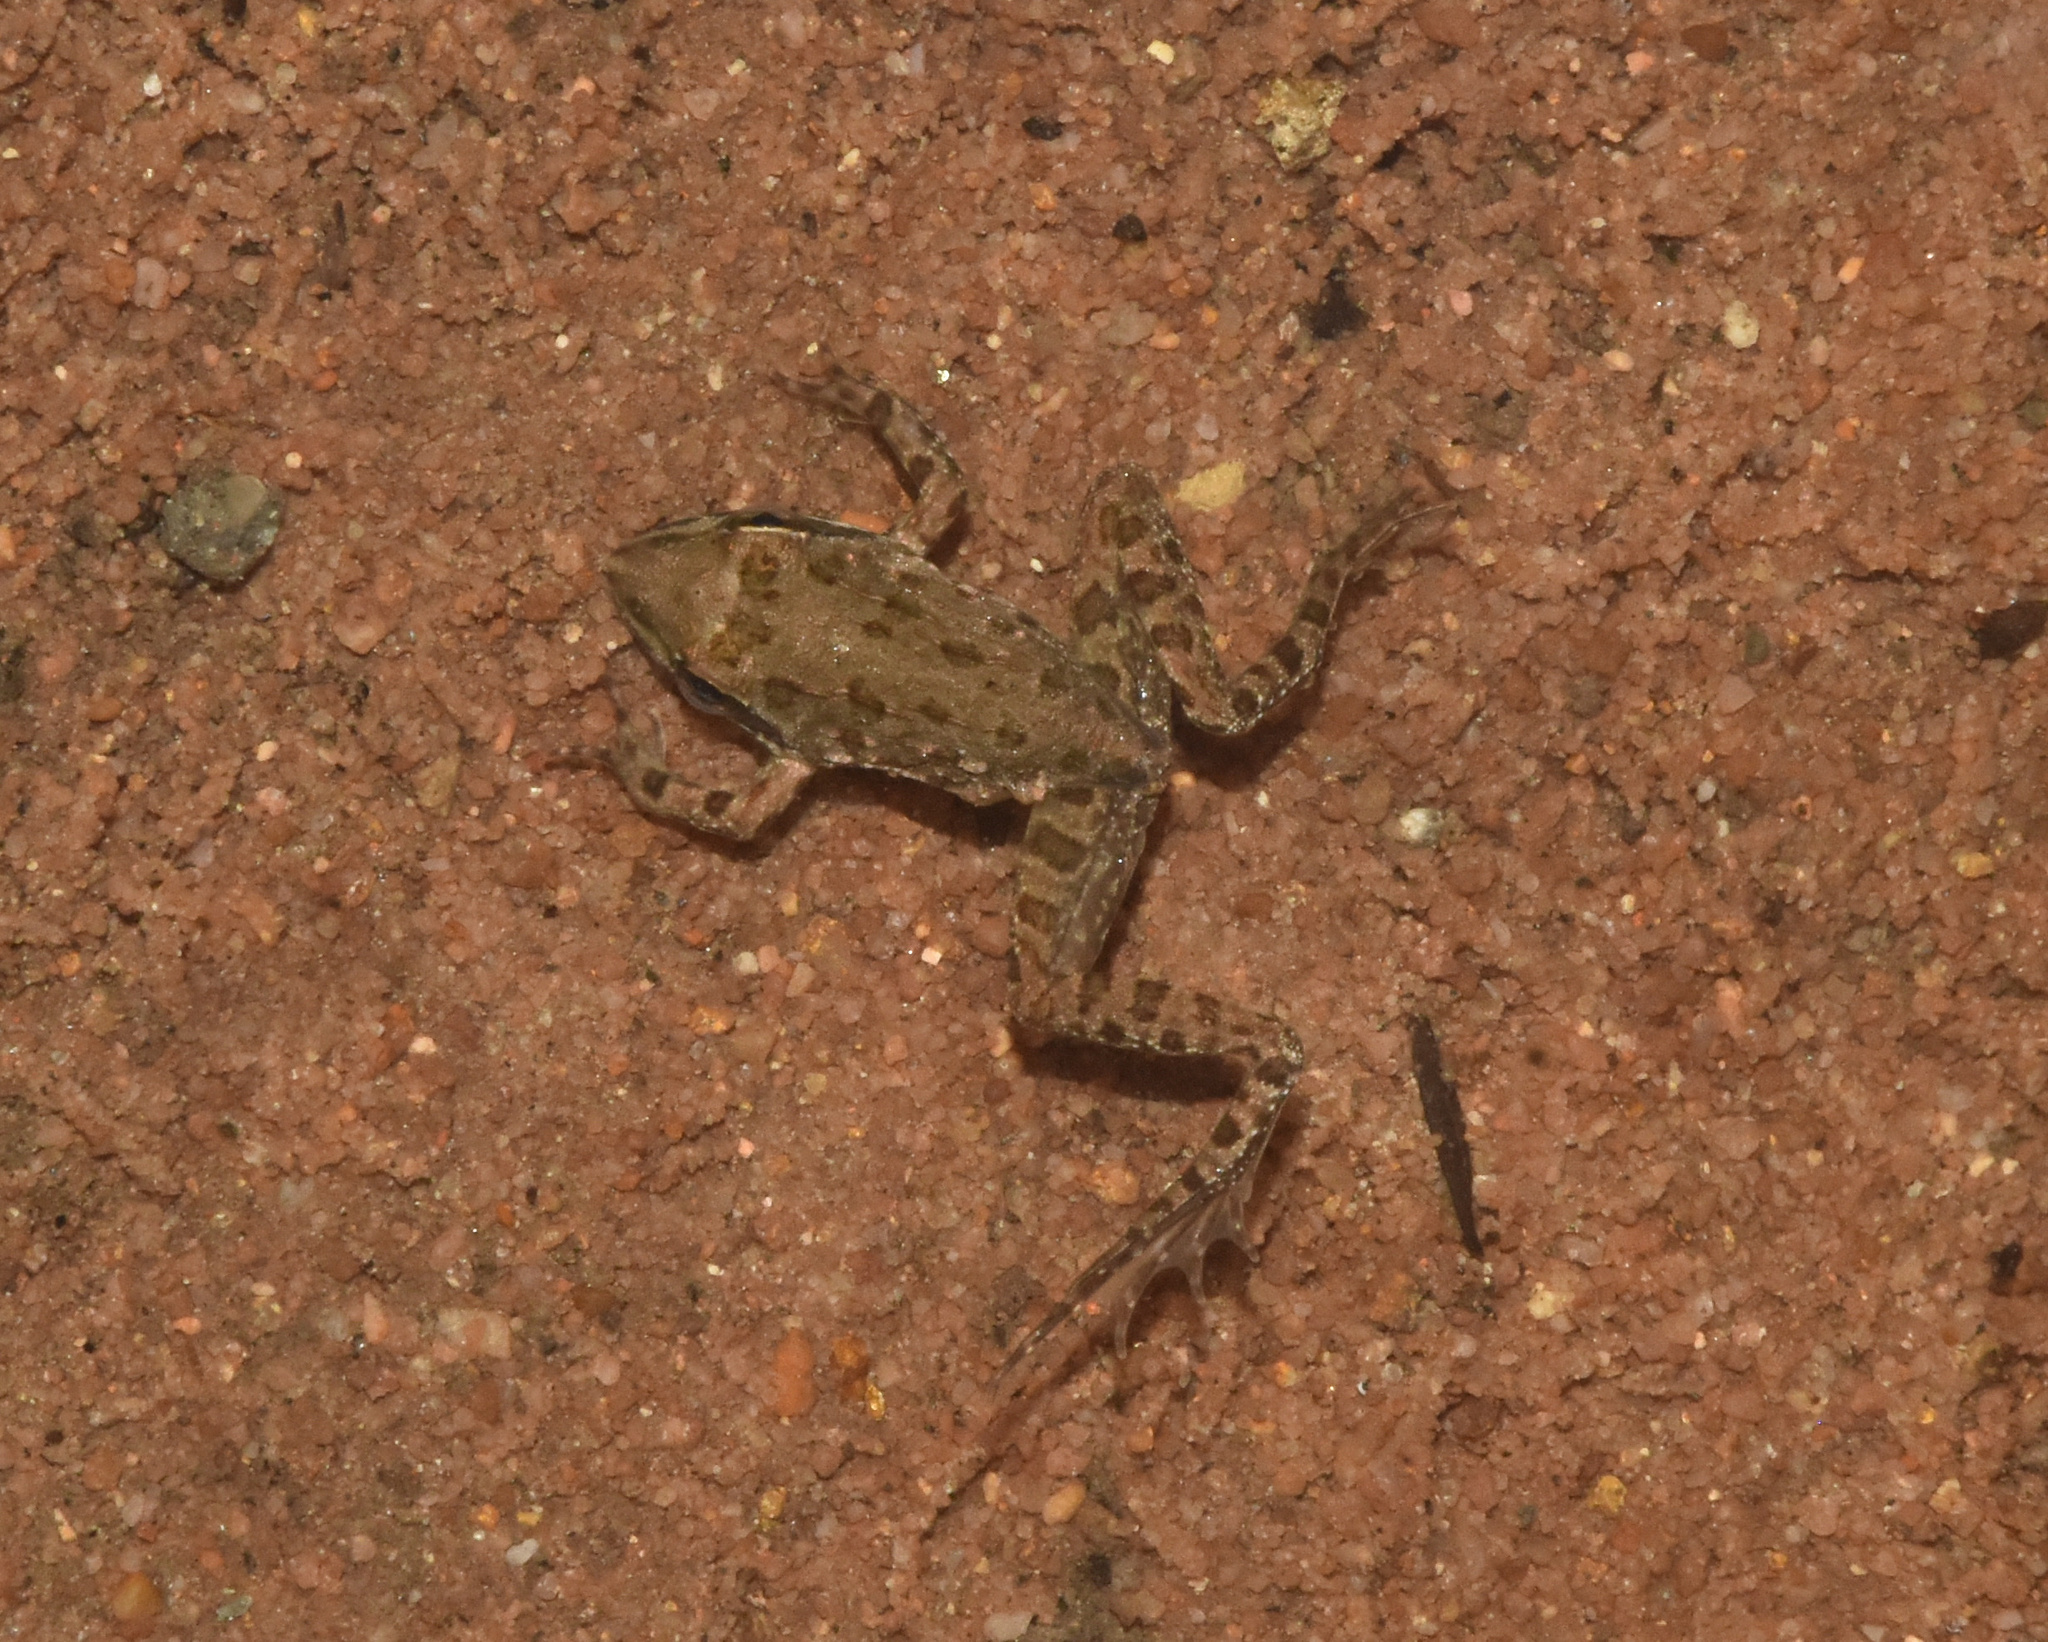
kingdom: Animalia
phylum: Chordata
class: Amphibia
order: Anura
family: Pyxicephalidae
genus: Amietia
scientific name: Amietia delalandii
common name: Delalande's river frog
